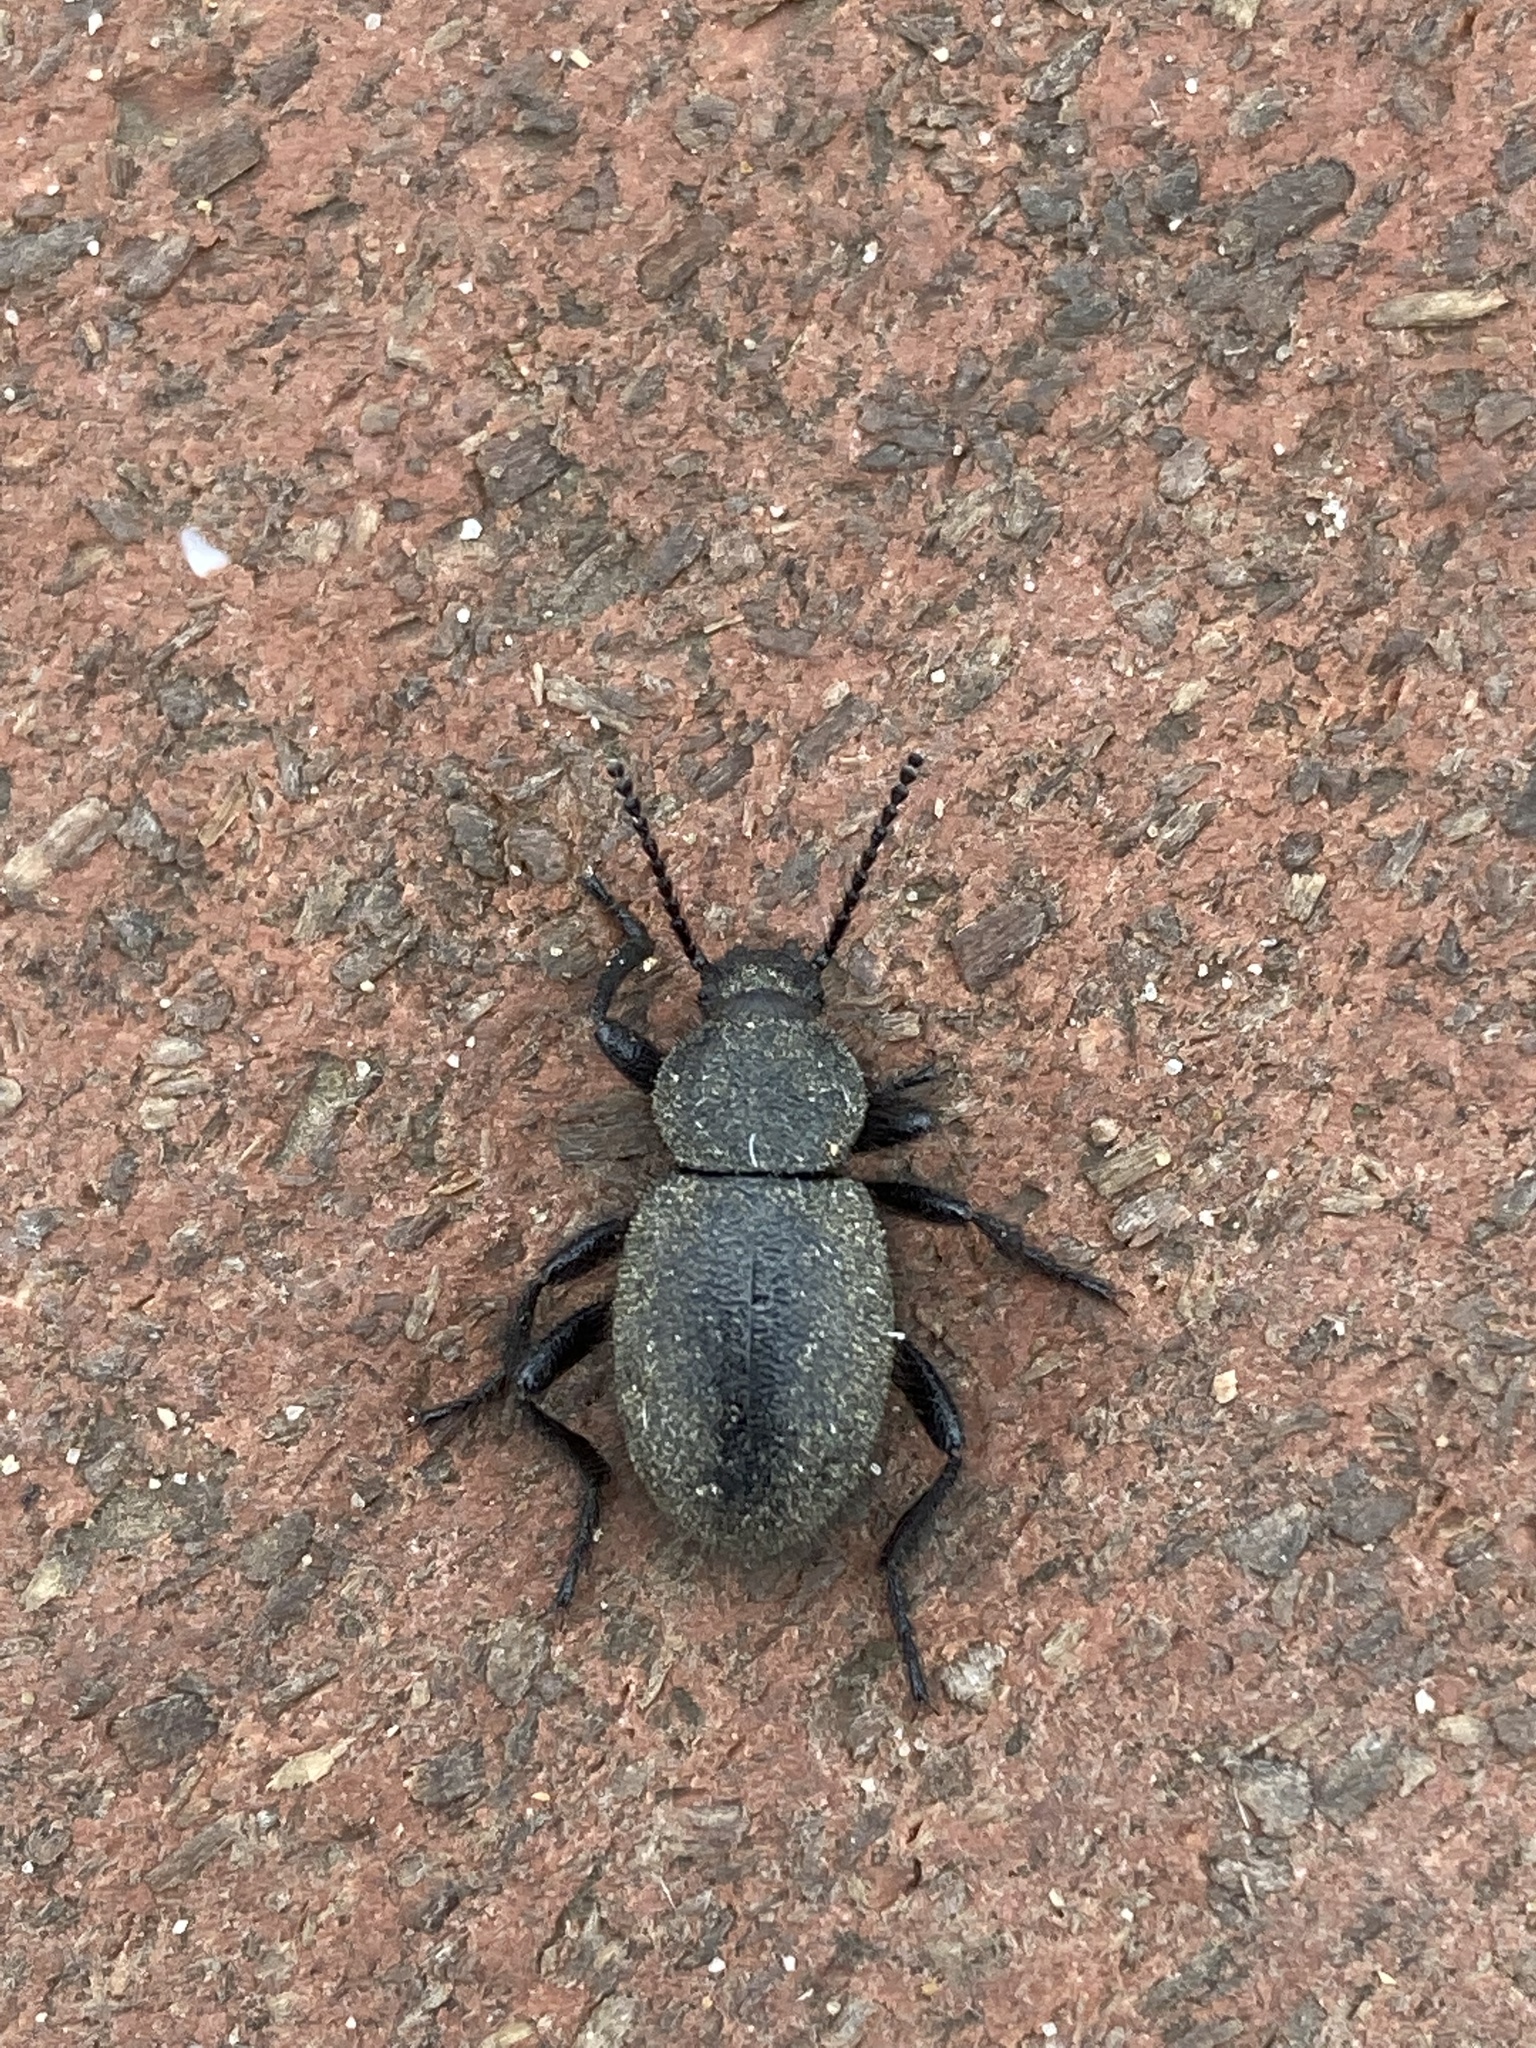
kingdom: Animalia
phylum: Arthropoda
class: Insecta
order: Coleoptera
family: Tenebrionidae
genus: Eleodes
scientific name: Eleodes osculans
